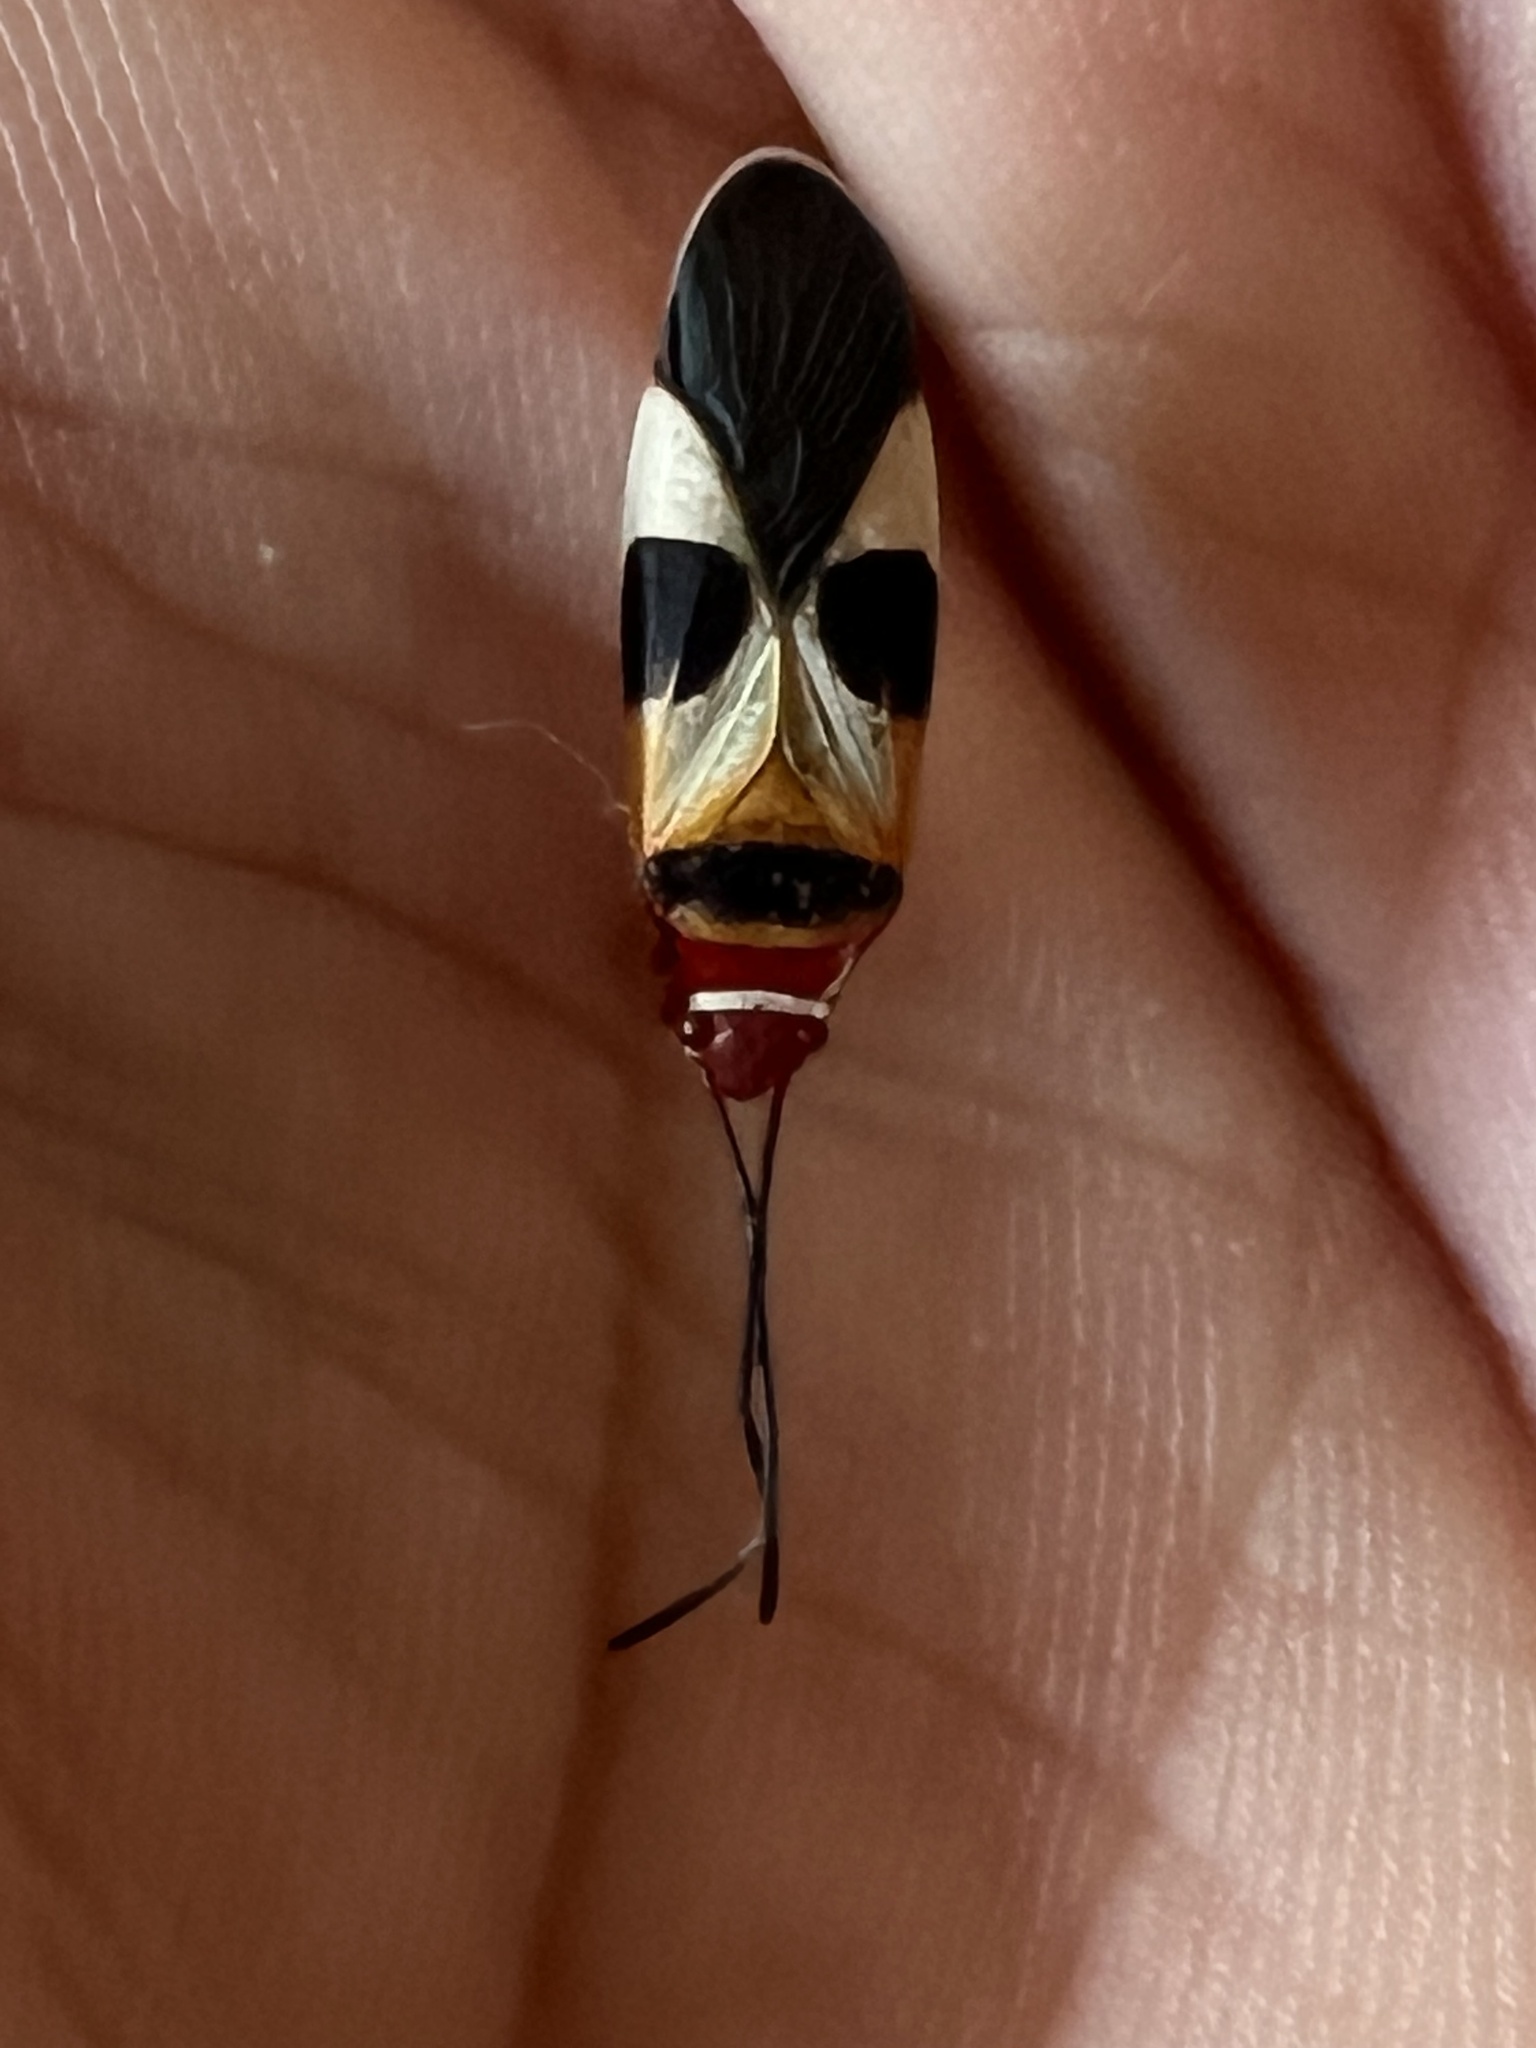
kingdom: Animalia
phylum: Arthropoda
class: Insecta
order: Hemiptera
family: Pyrrhocoridae
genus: Dysdercus
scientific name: Dysdercus concinnus
